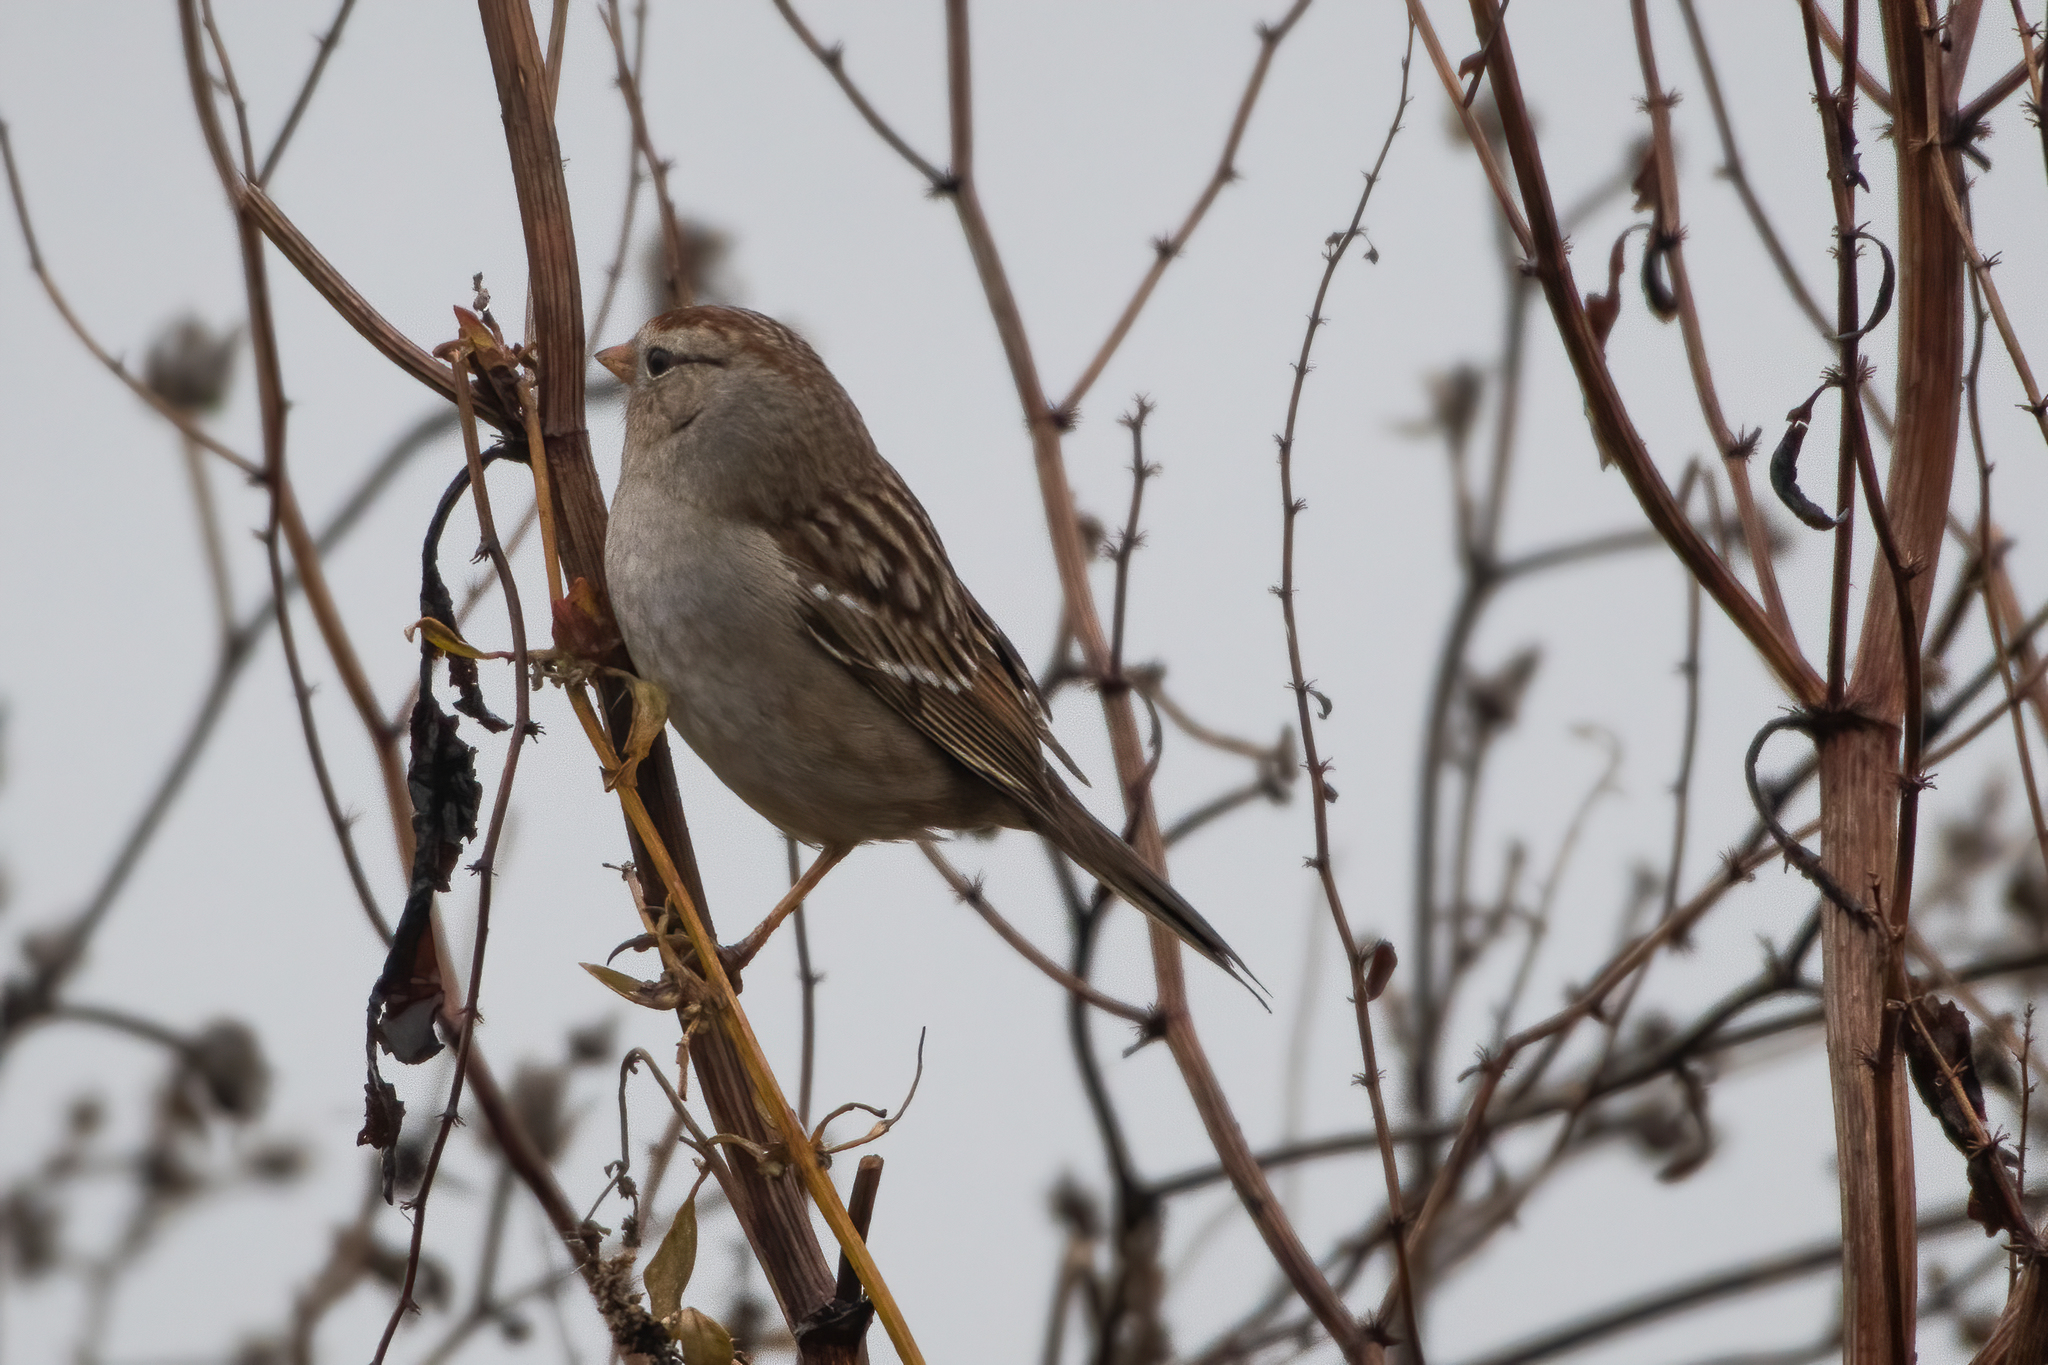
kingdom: Animalia
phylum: Chordata
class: Aves
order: Passeriformes
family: Passerellidae
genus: Zonotrichia
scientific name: Zonotrichia leucophrys
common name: White-crowned sparrow
